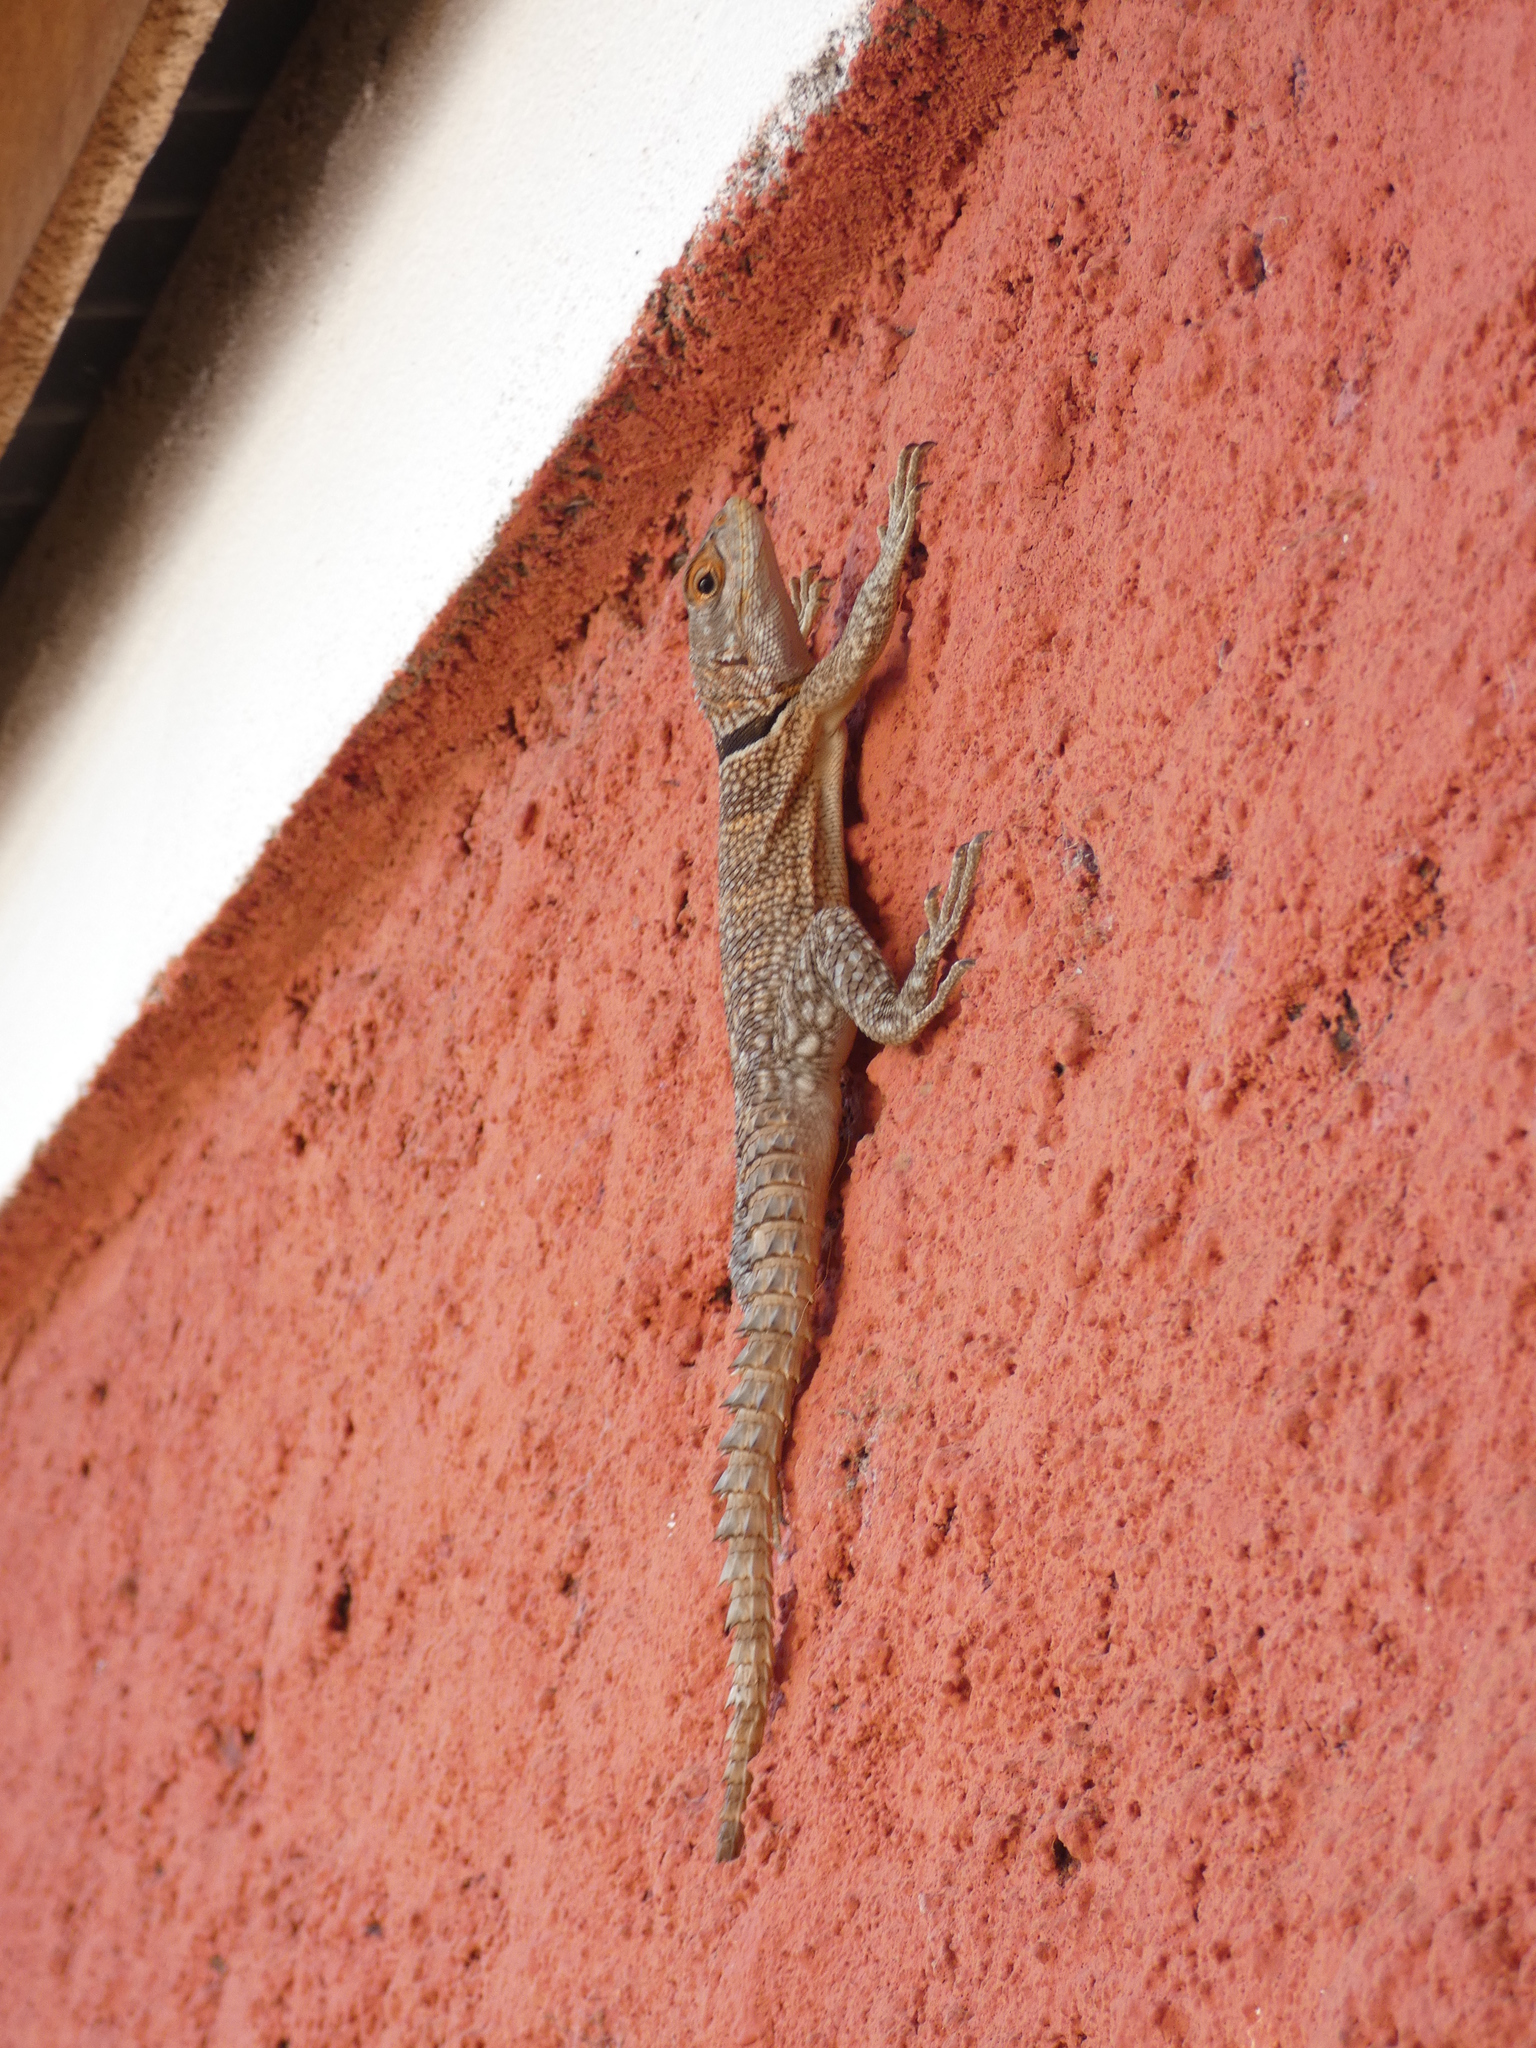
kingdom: Animalia
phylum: Chordata
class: Squamata
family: Opluridae
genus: Oplurus
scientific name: Oplurus cuvieri
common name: Cuvier's madagascar swift
